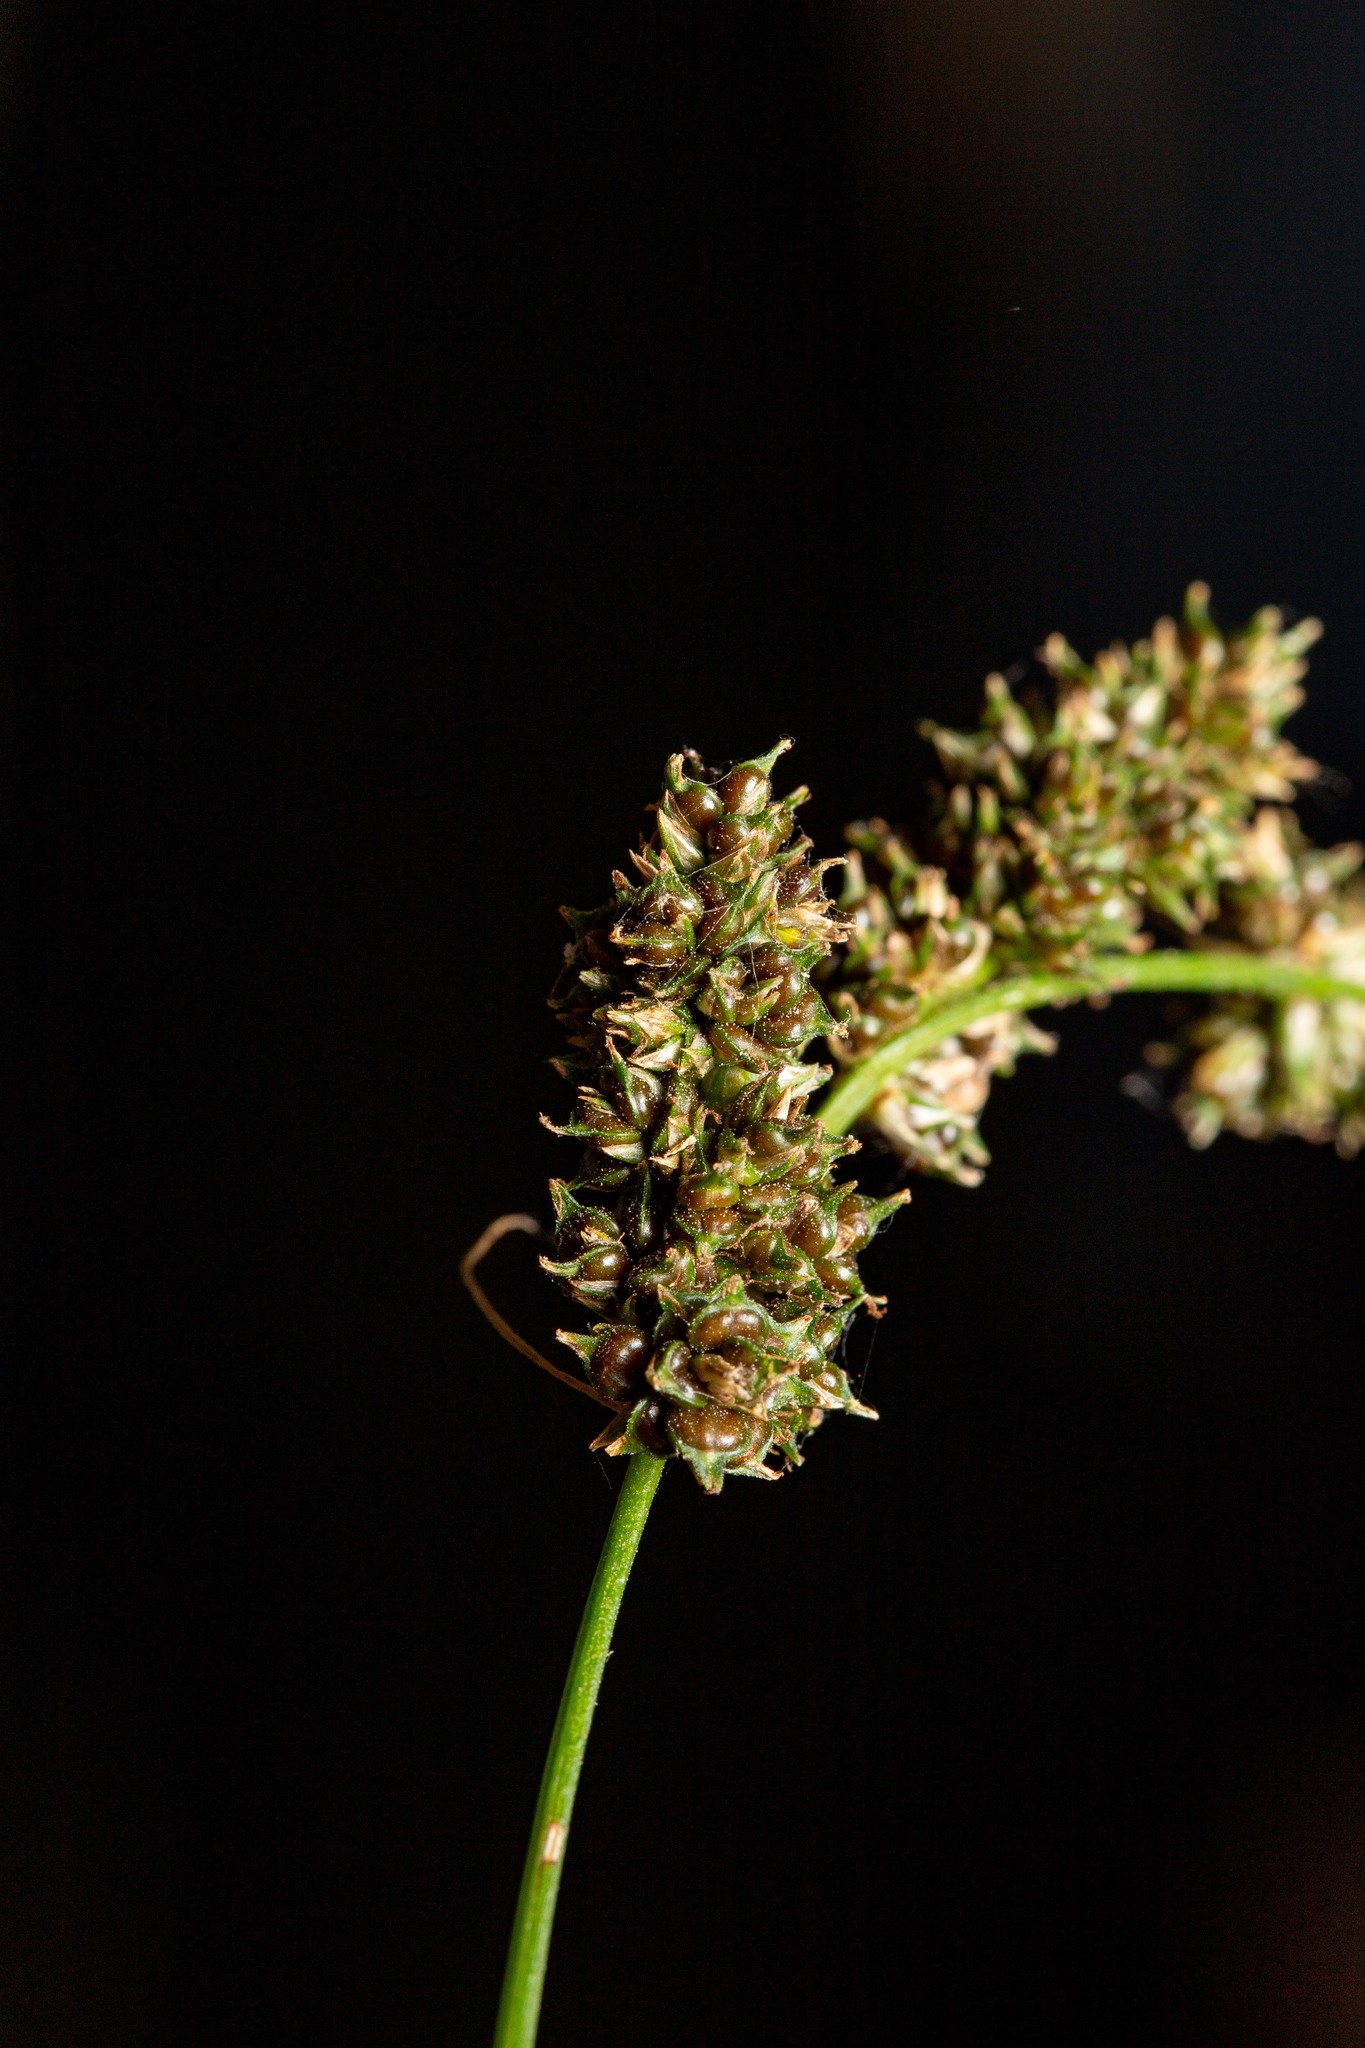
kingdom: Plantae
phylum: Tracheophyta
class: Liliopsida
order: Poales
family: Cyperaceae
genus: Carex
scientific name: Carex decomposita
